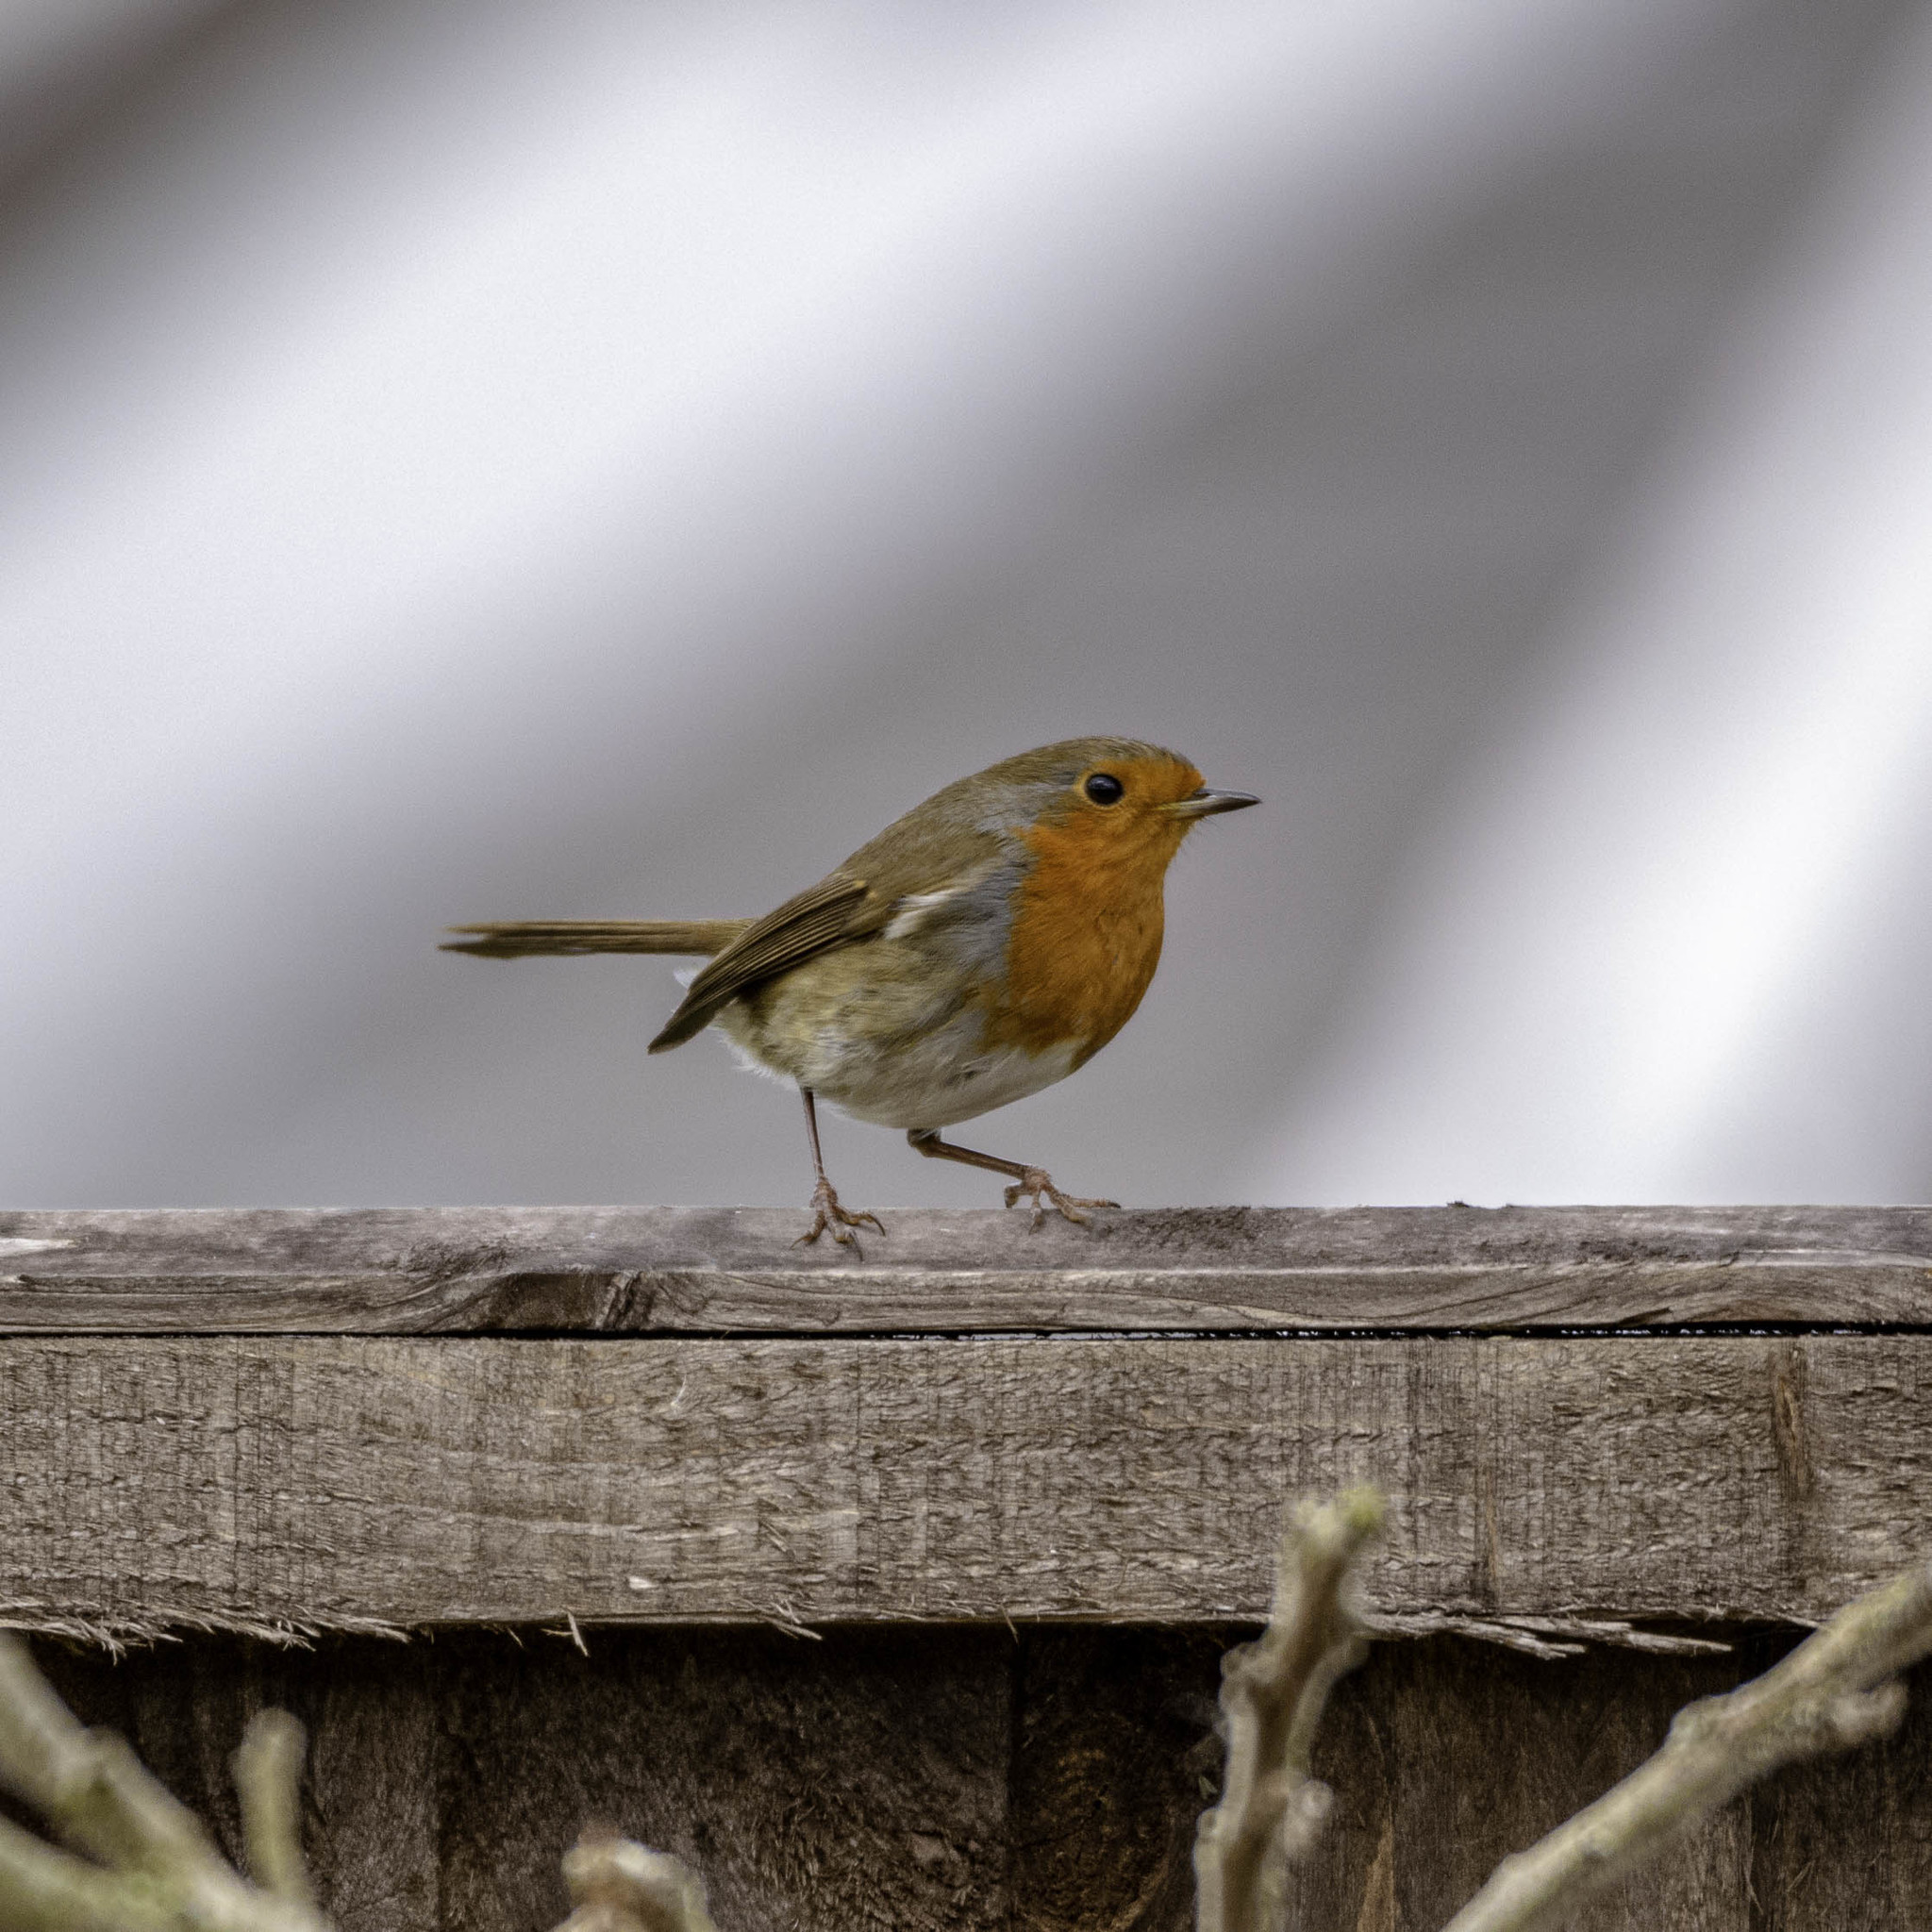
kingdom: Animalia
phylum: Chordata
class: Aves
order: Passeriformes
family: Muscicapidae
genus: Erithacus
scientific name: Erithacus rubecula
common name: European robin
